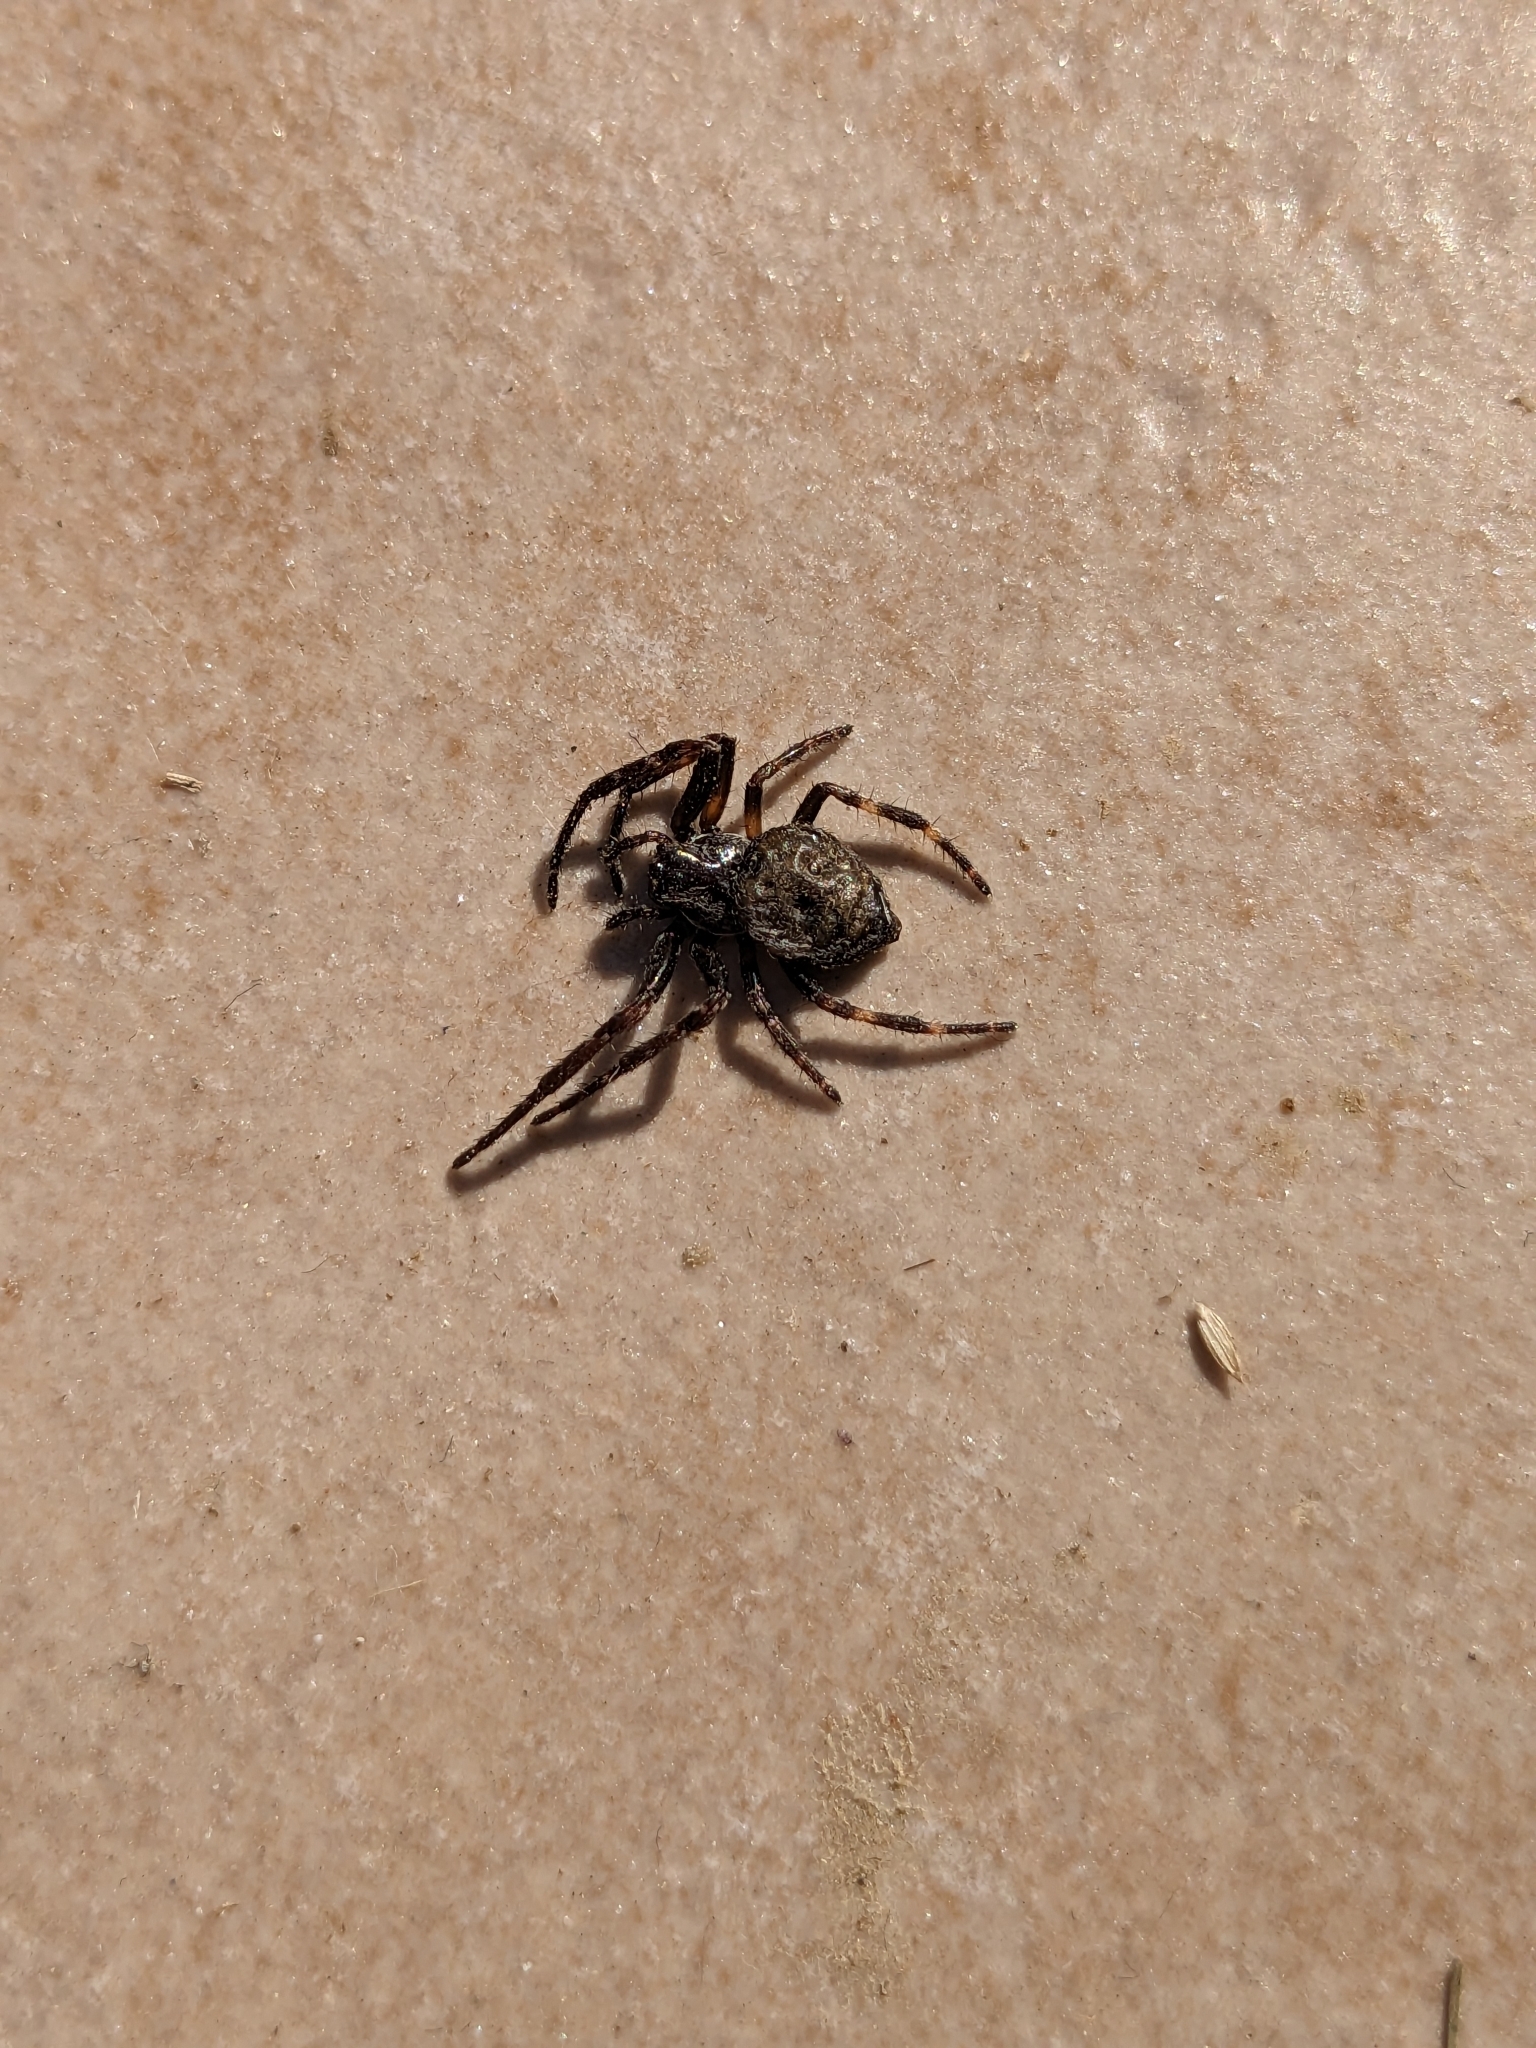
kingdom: Animalia
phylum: Arthropoda
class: Arachnida
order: Araneae
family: Araneidae
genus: Nuctenea
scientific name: Nuctenea umbratica
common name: Toad spider
